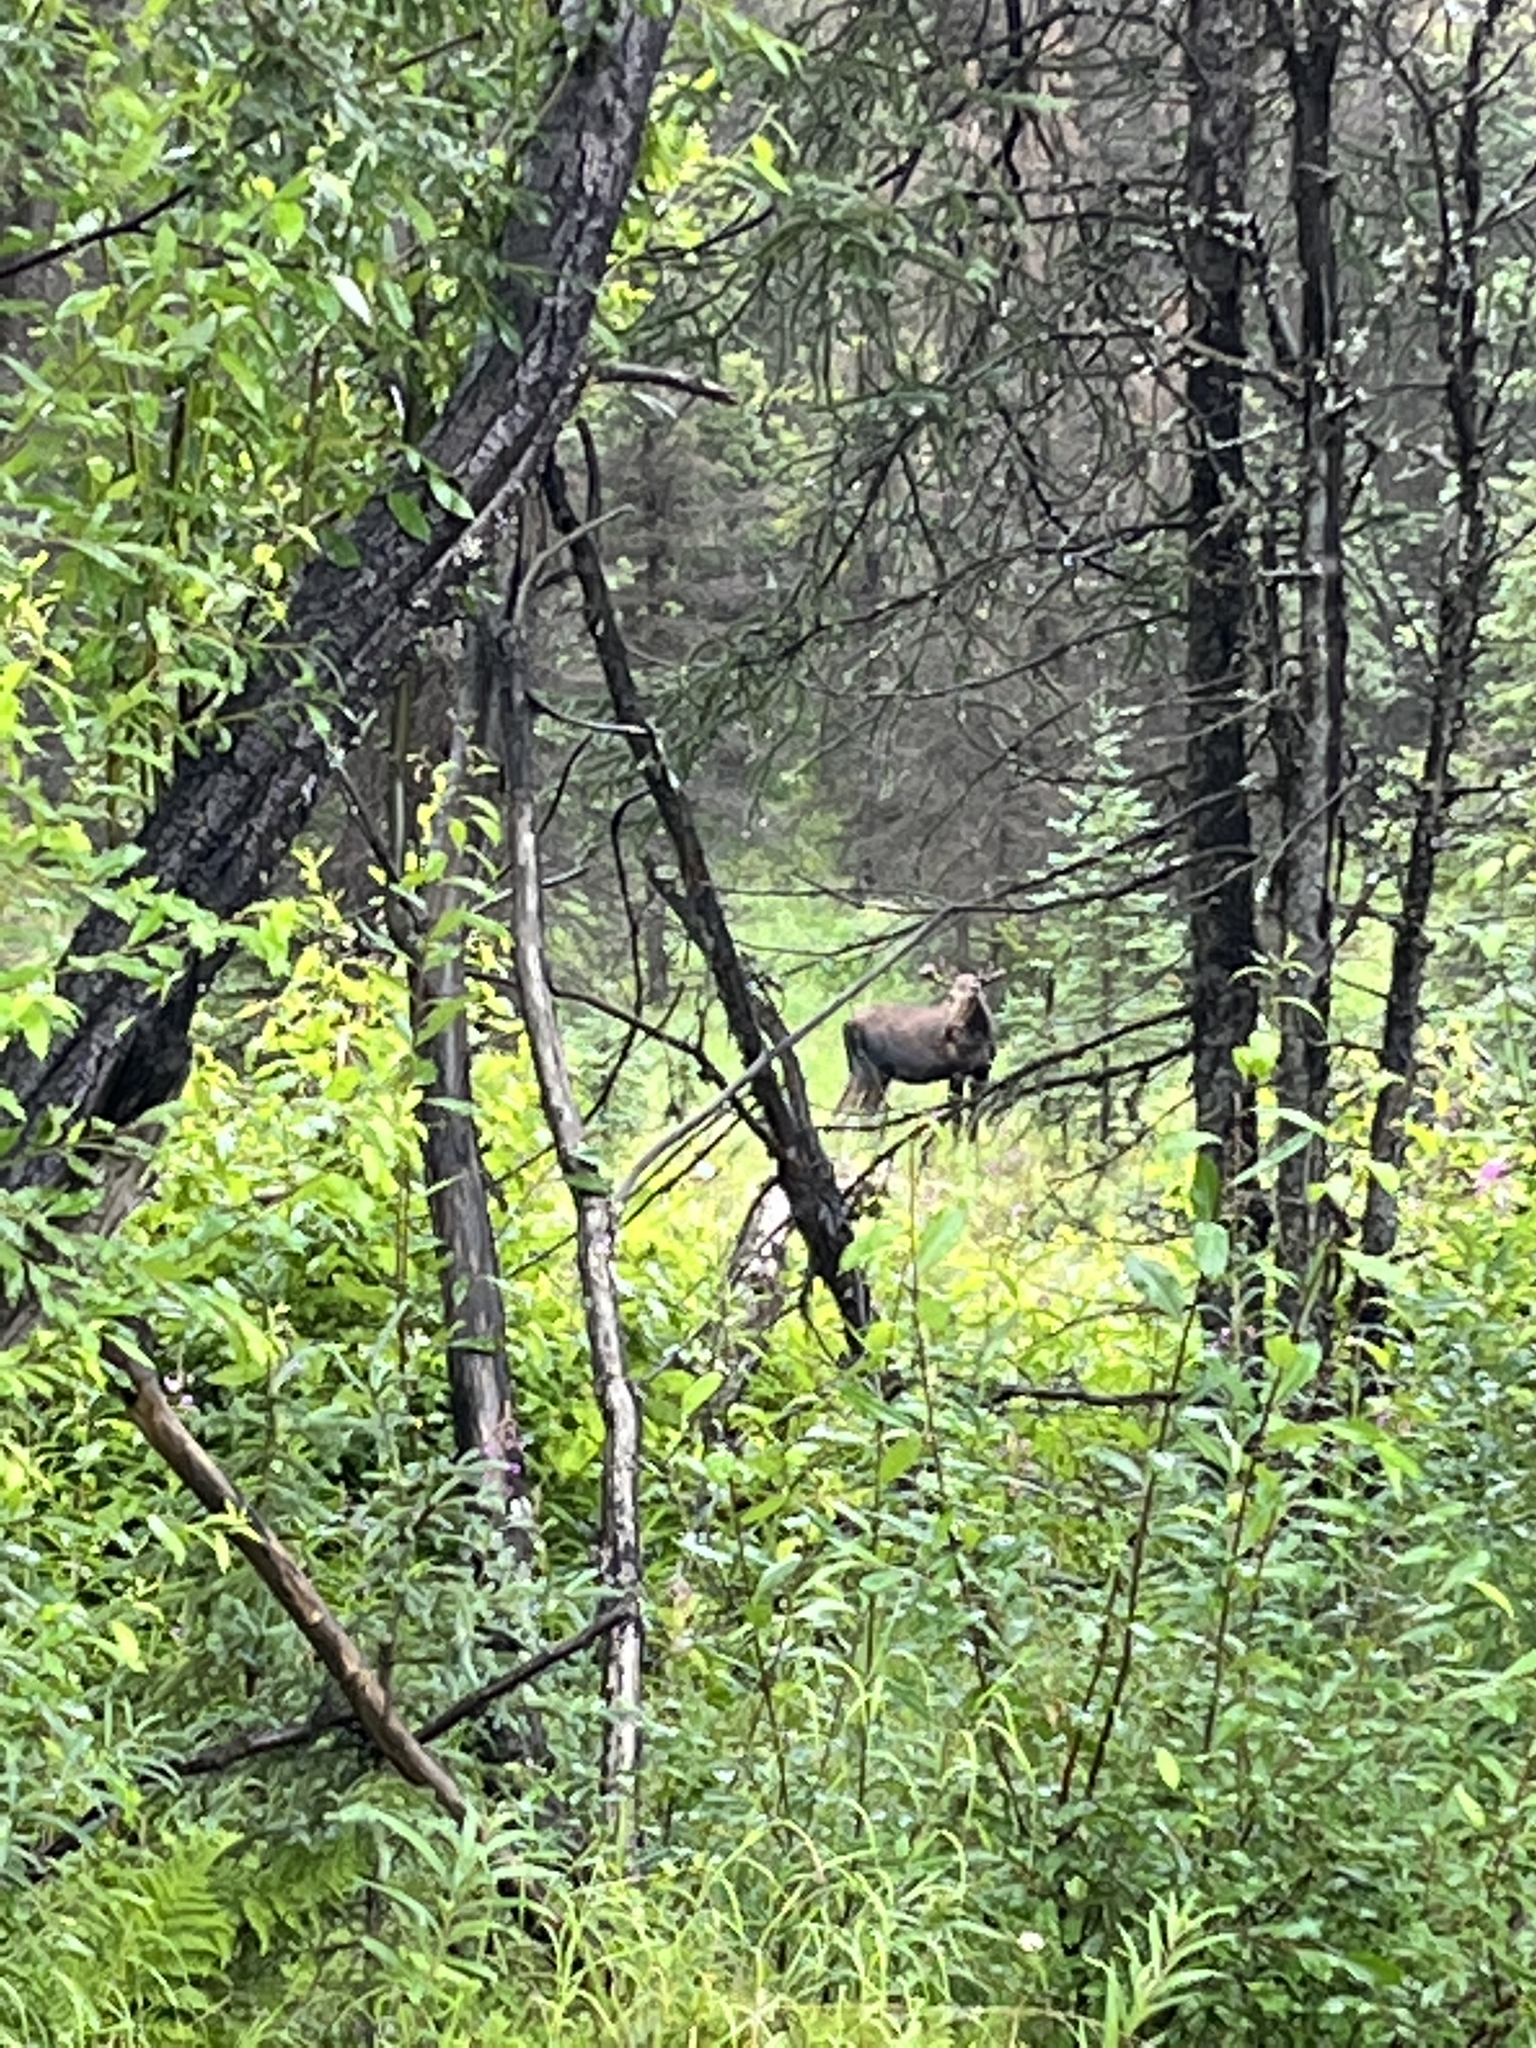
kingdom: Animalia
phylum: Chordata
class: Mammalia
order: Artiodactyla
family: Cervidae
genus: Alces
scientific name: Alces alces
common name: Moose
